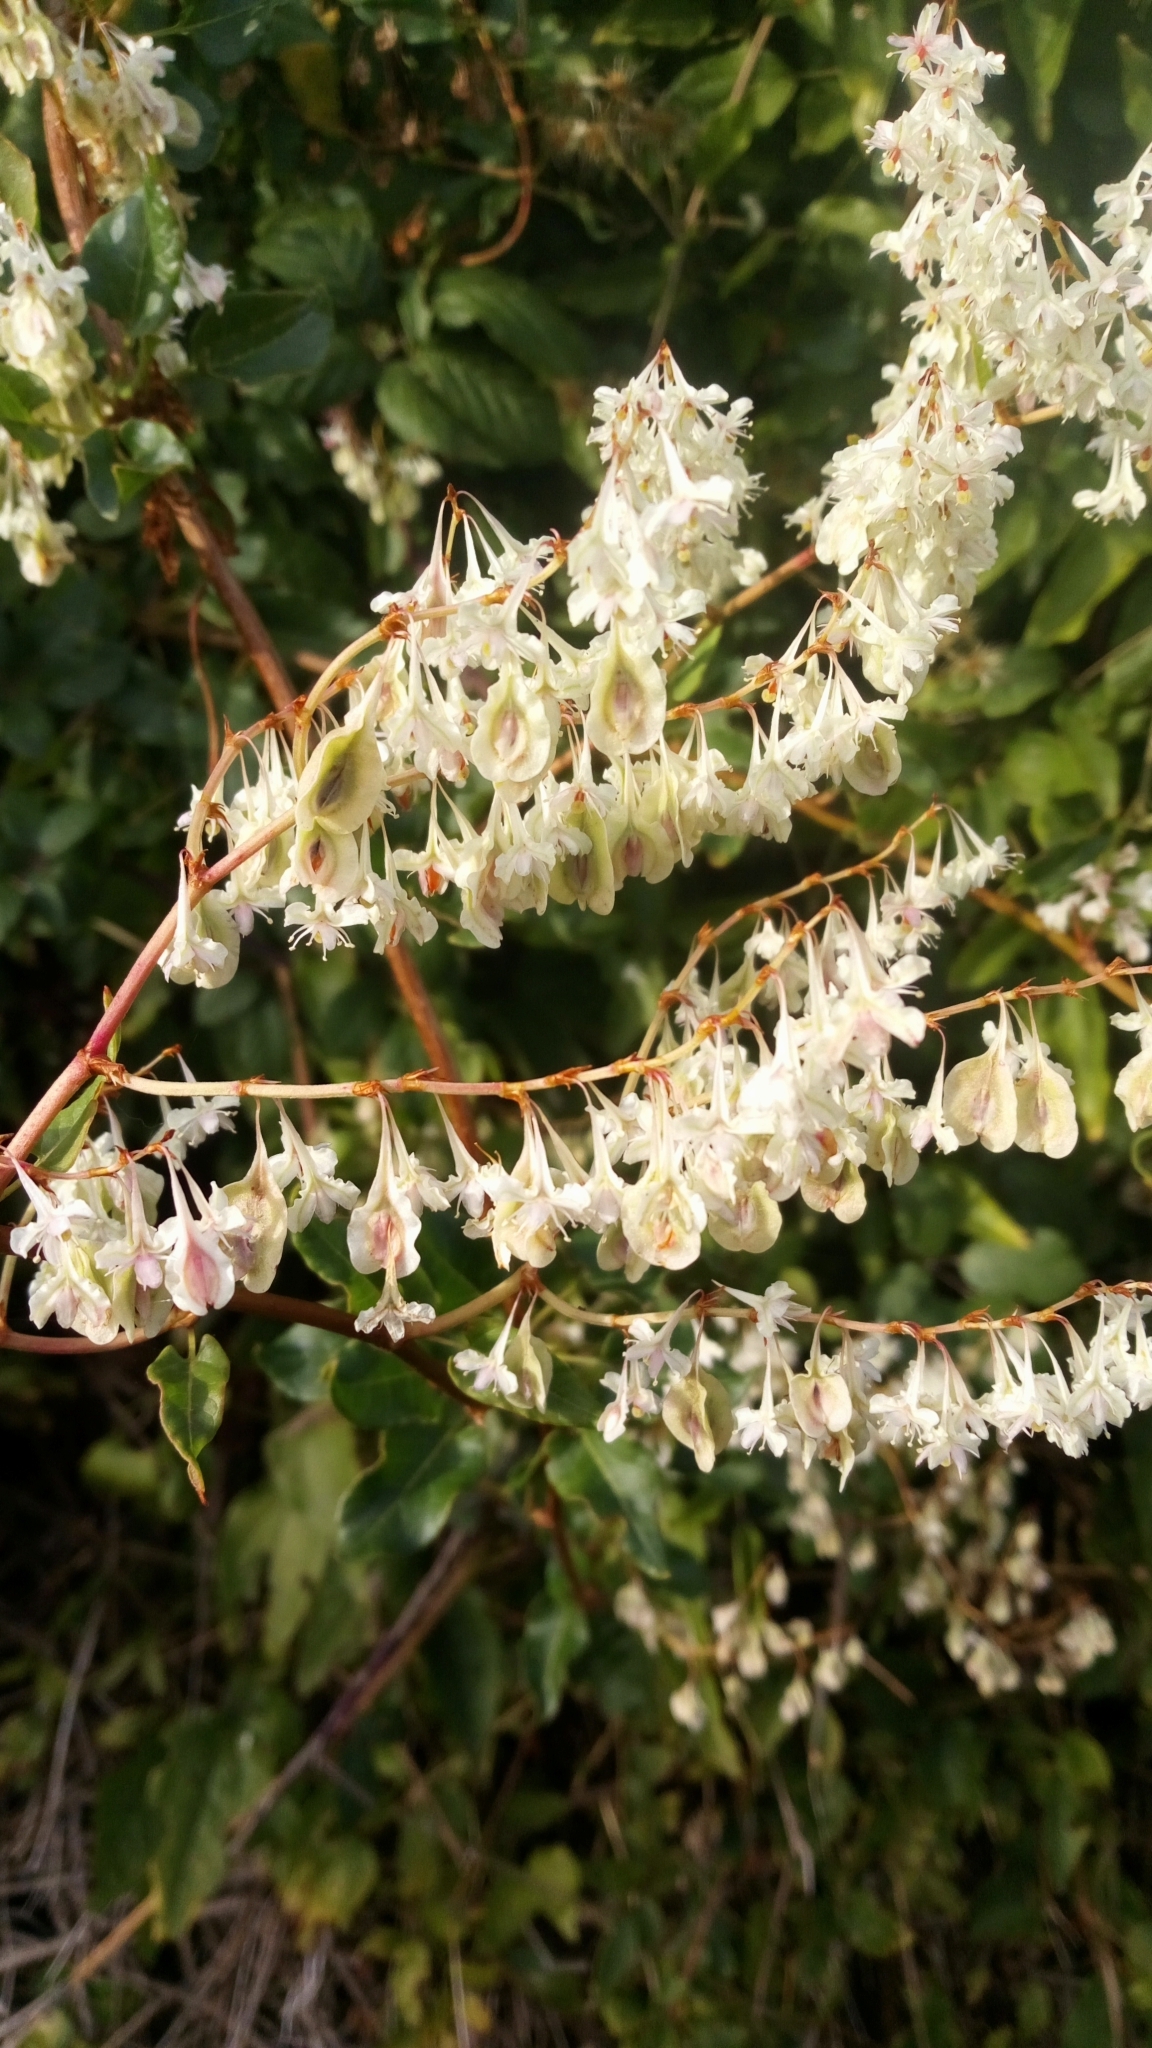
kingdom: Plantae
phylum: Tracheophyta
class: Magnoliopsida
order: Caryophyllales
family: Polygonaceae
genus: Fallopia
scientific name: Fallopia baldschuanica
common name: Russian-vine
